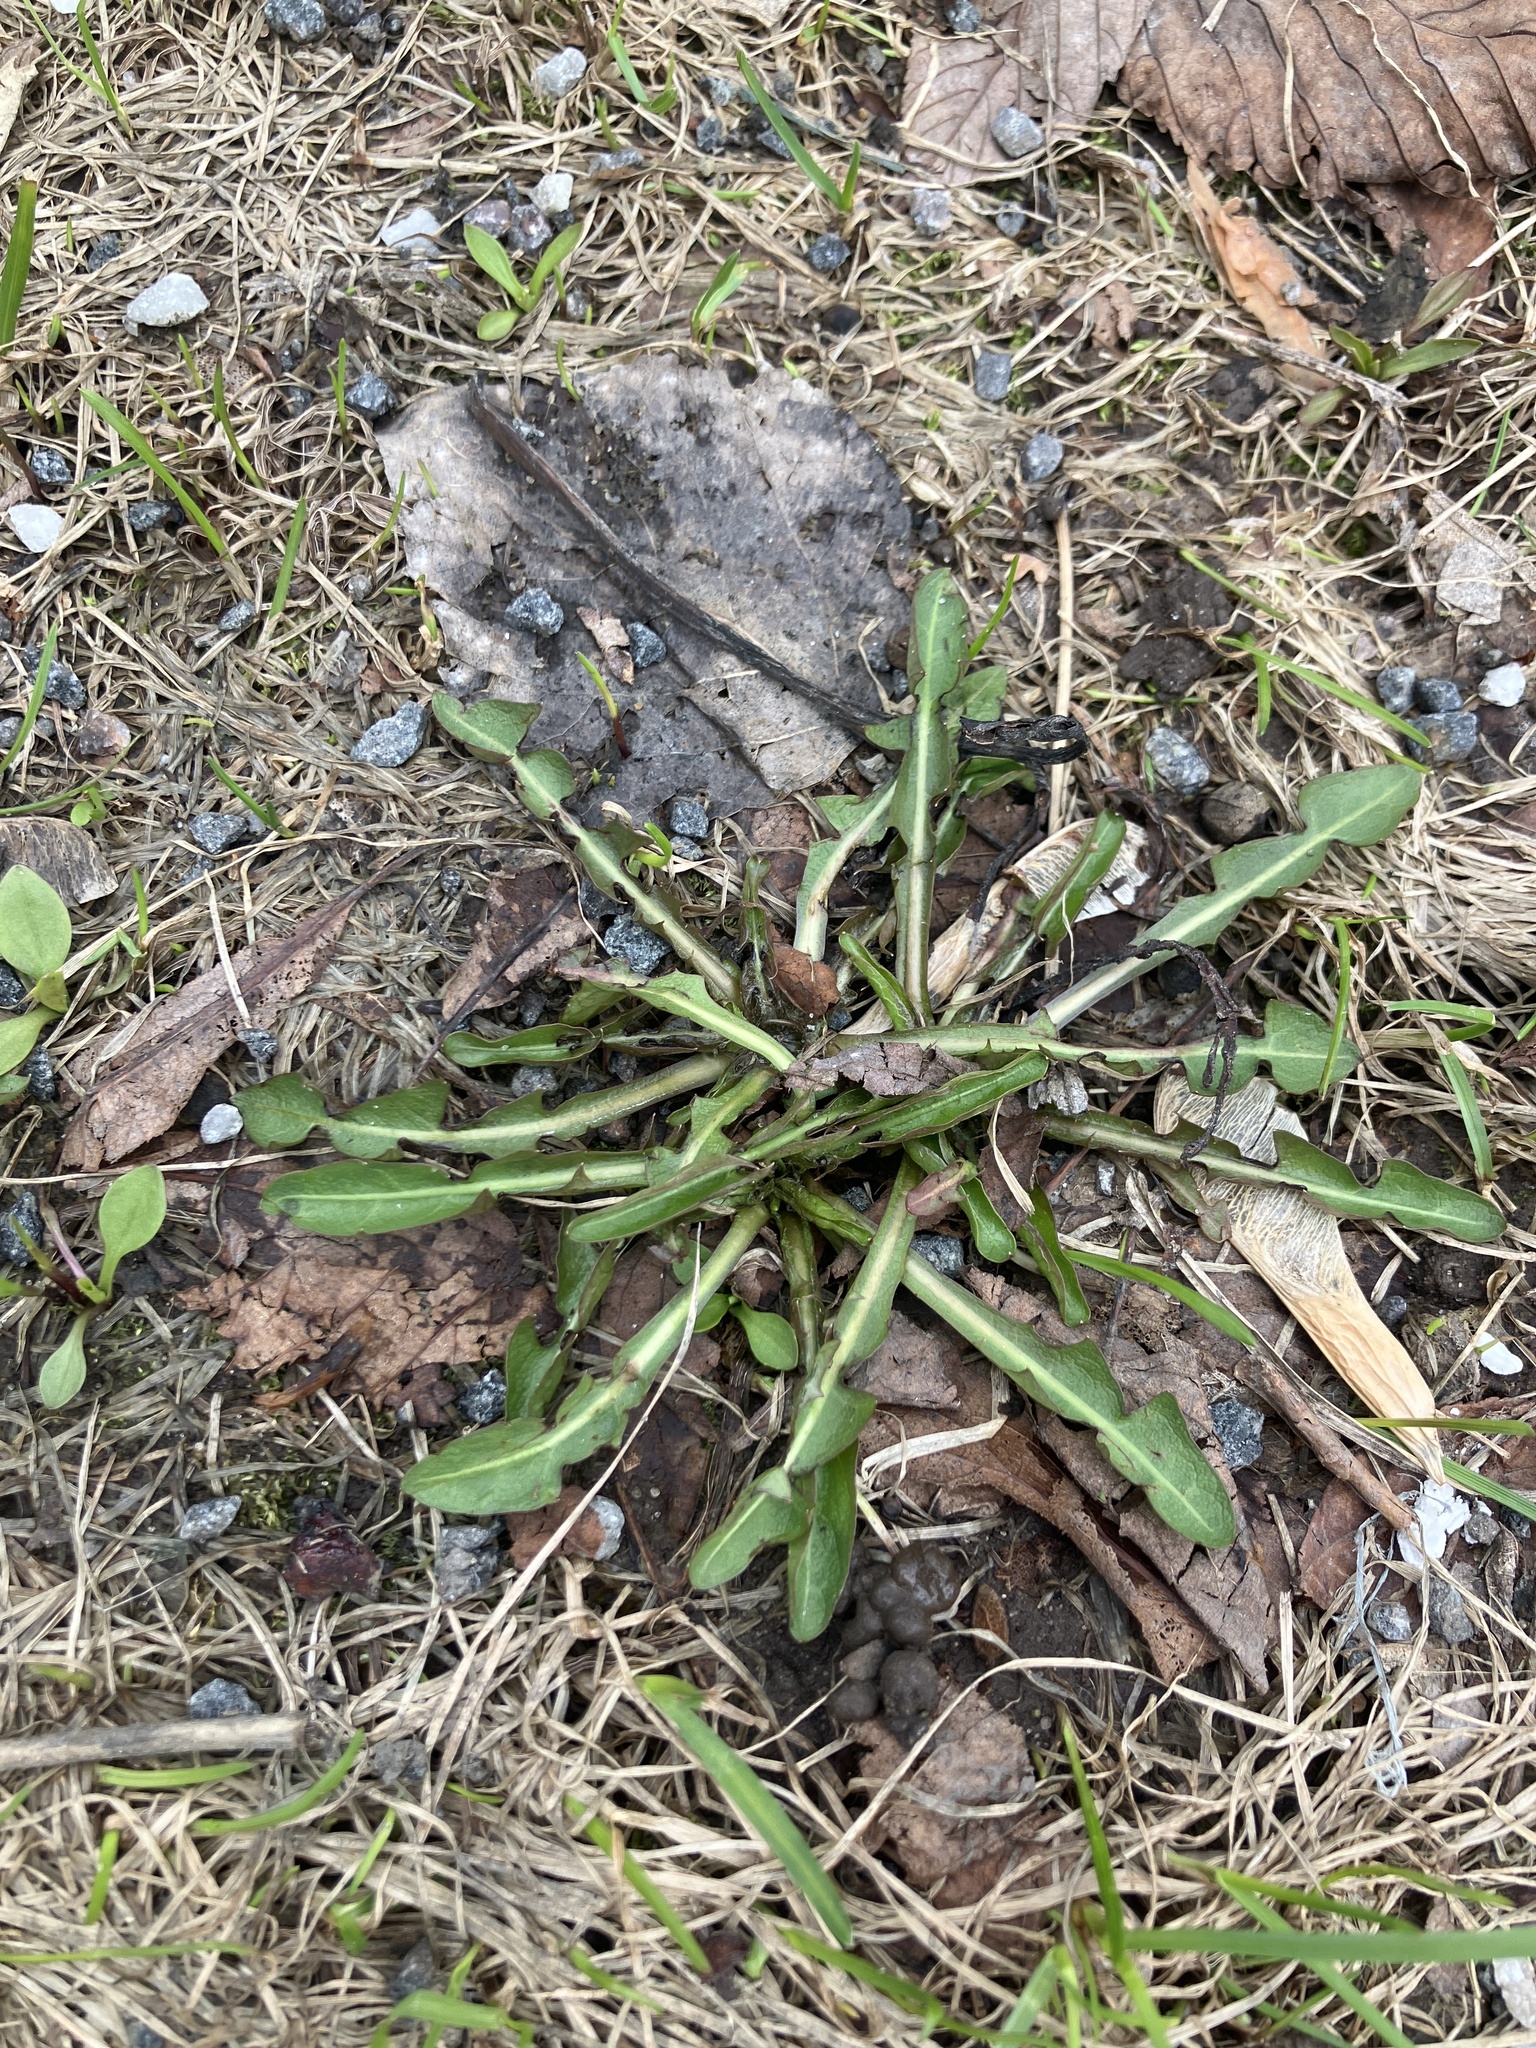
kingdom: Plantae
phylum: Tracheophyta
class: Magnoliopsida
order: Asterales
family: Asteraceae
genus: Taraxacum
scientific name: Taraxacum officinale
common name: Common dandelion
